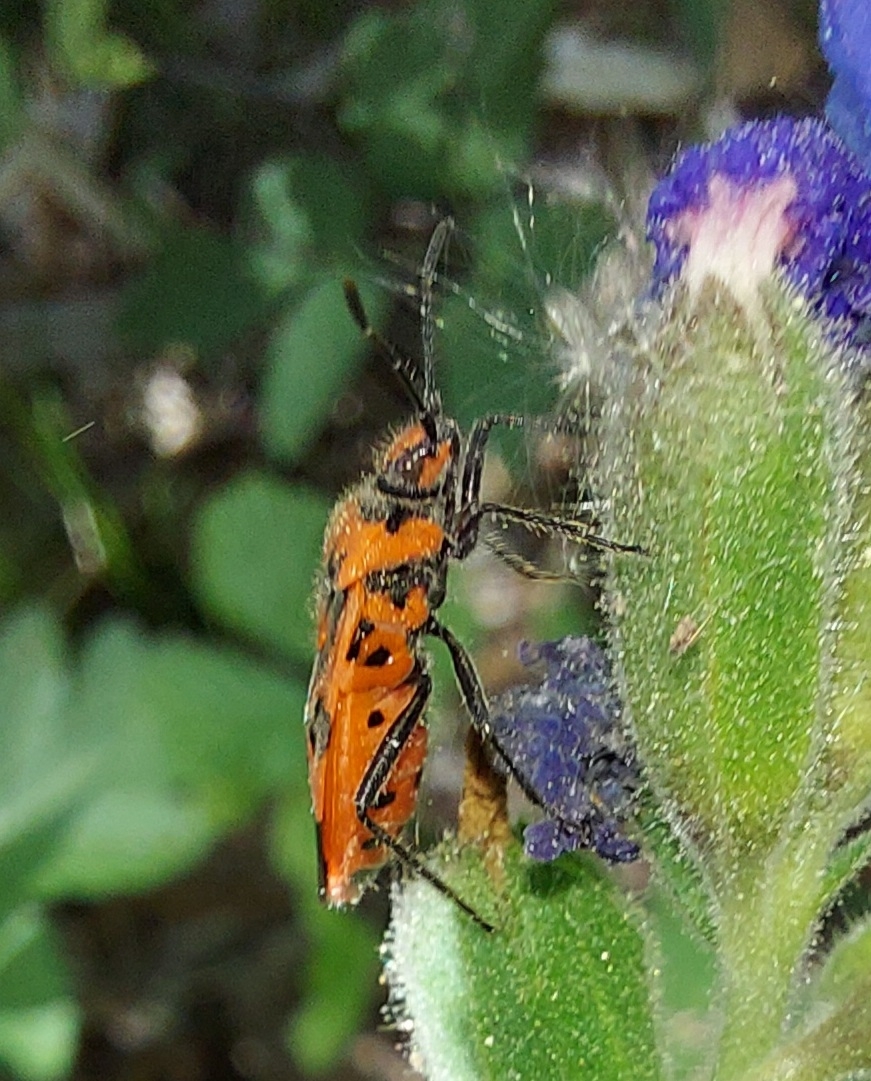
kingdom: Animalia
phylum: Arthropoda
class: Insecta
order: Hemiptera
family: Rhopalidae
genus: Corizus
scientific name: Corizus hyoscyami
